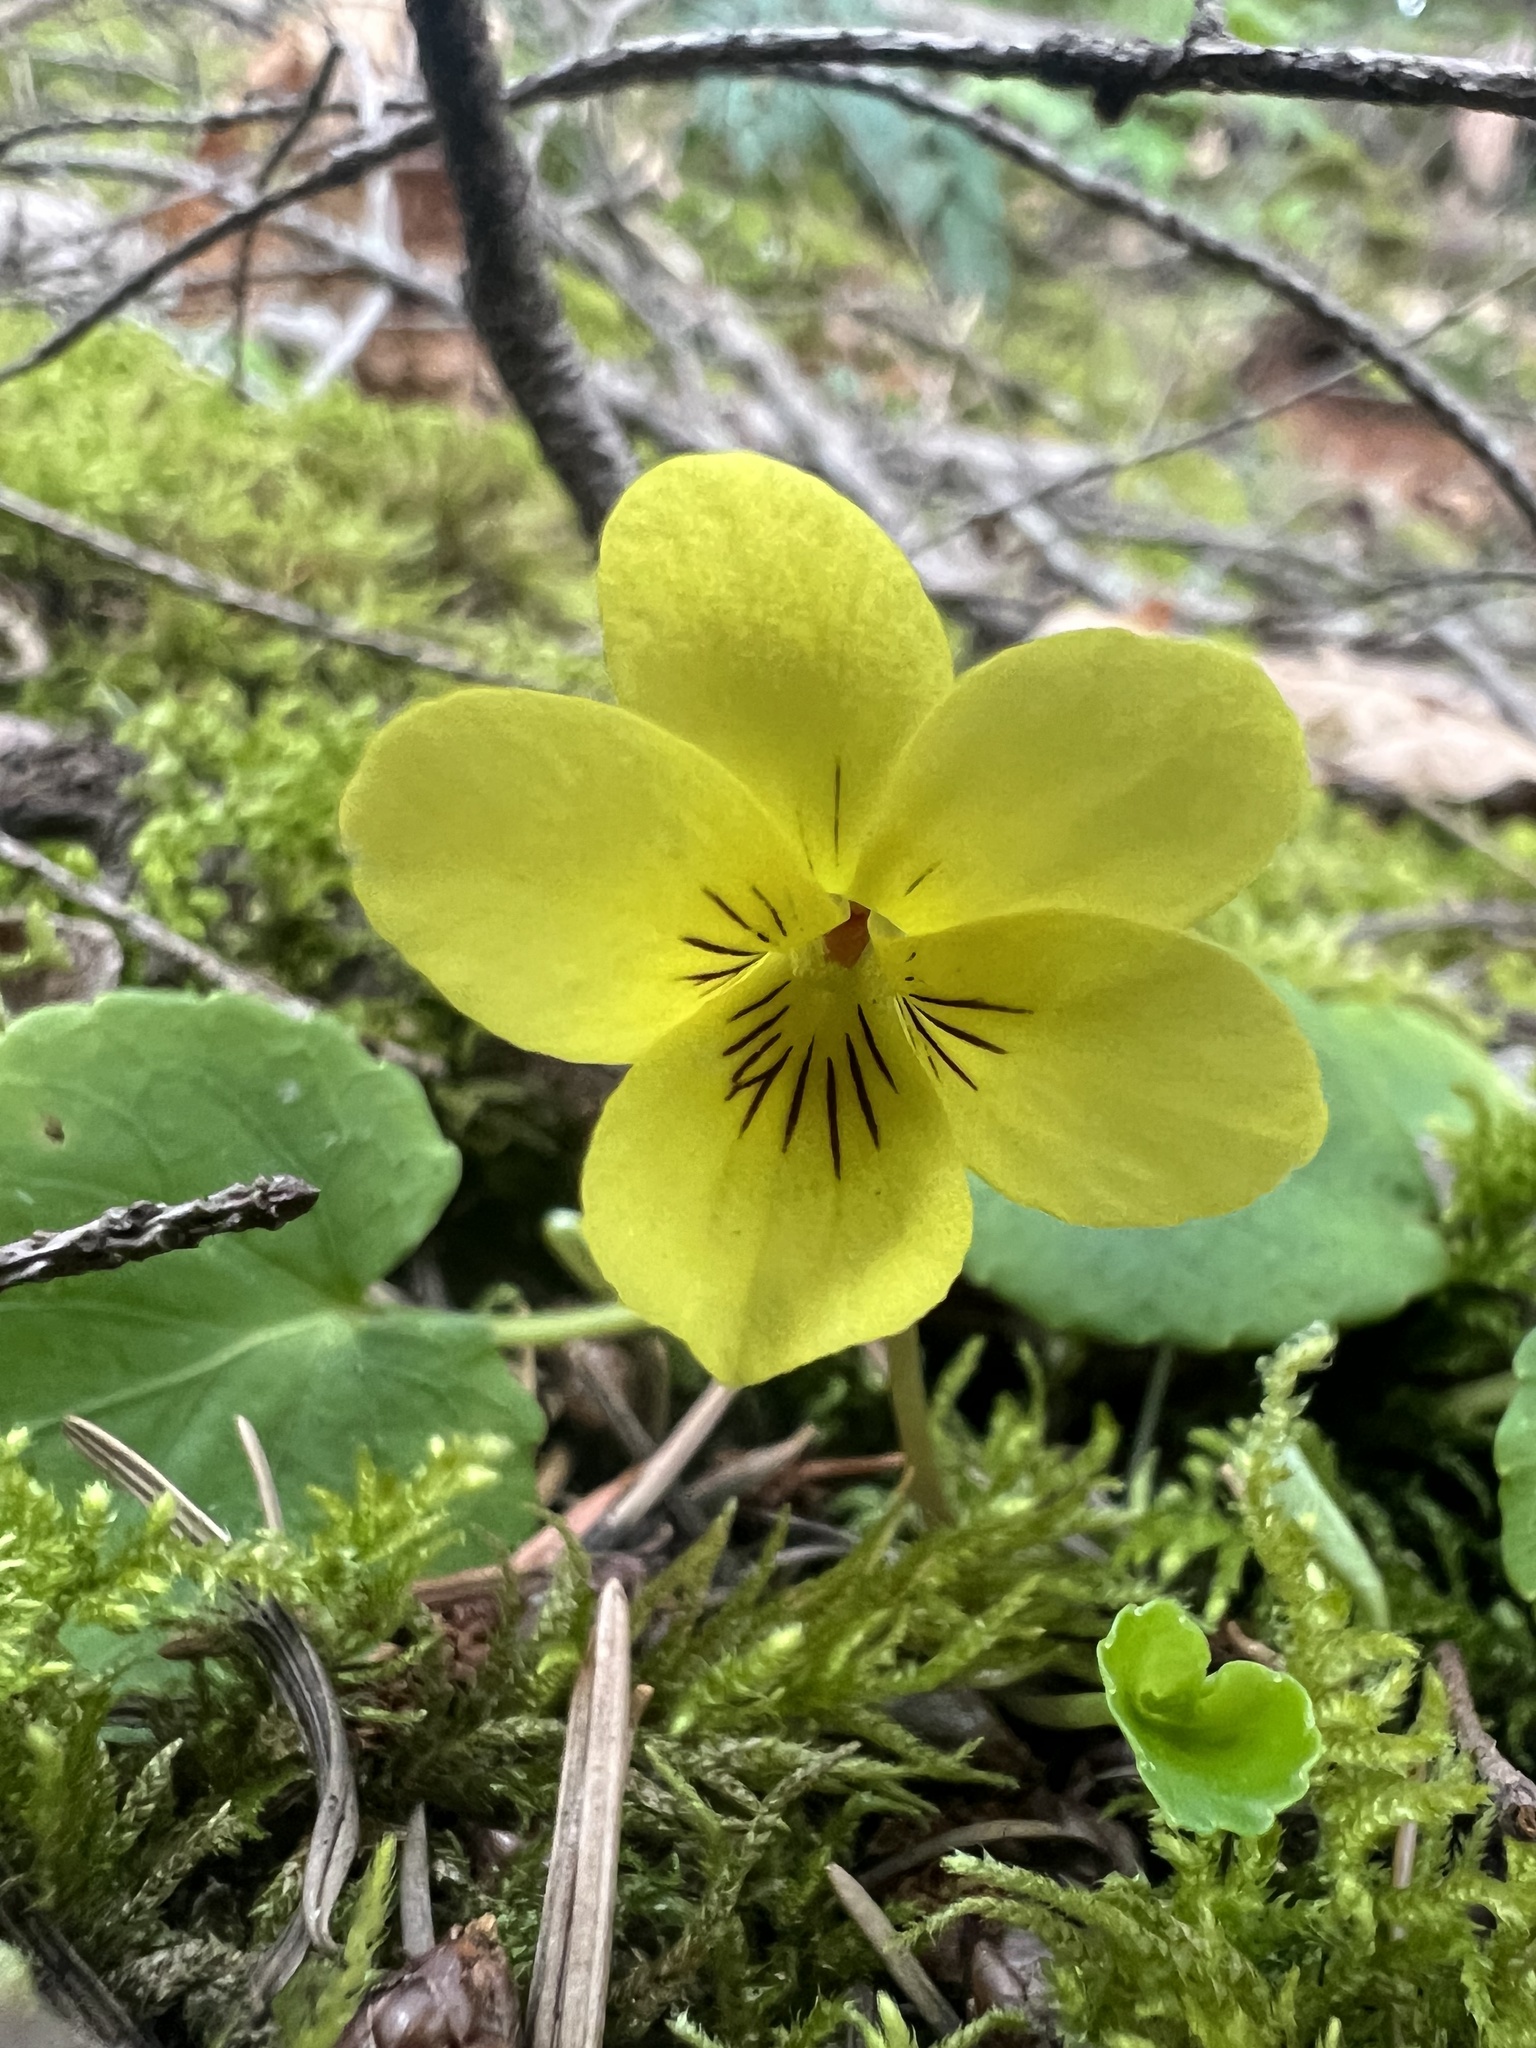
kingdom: Plantae
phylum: Tracheophyta
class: Magnoliopsida
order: Malpighiales
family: Violaceae
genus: Viola
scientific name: Viola sempervirens
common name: Evergreen violet
